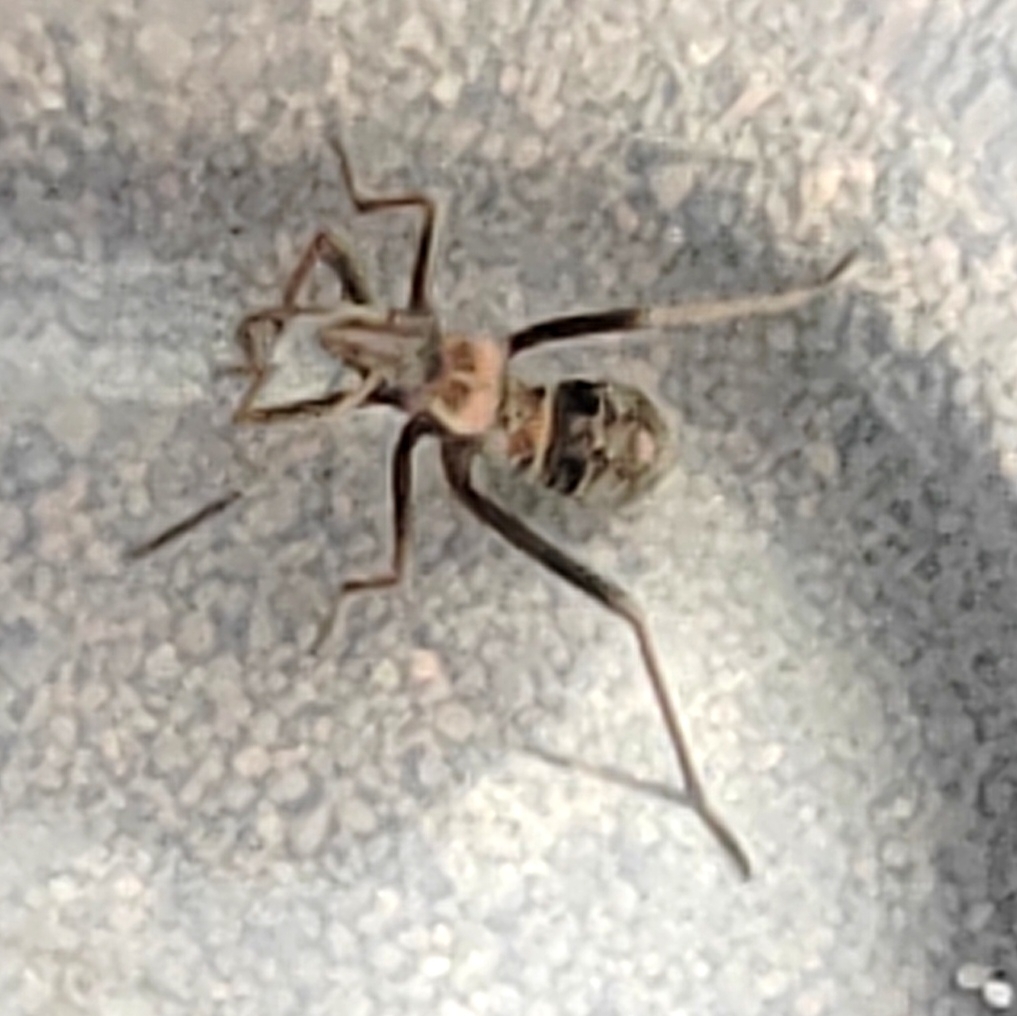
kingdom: Animalia
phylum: Arthropoda
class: Insecta
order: Hemiptera
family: Alydidae
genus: Alydus
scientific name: Alydus calcaratus
